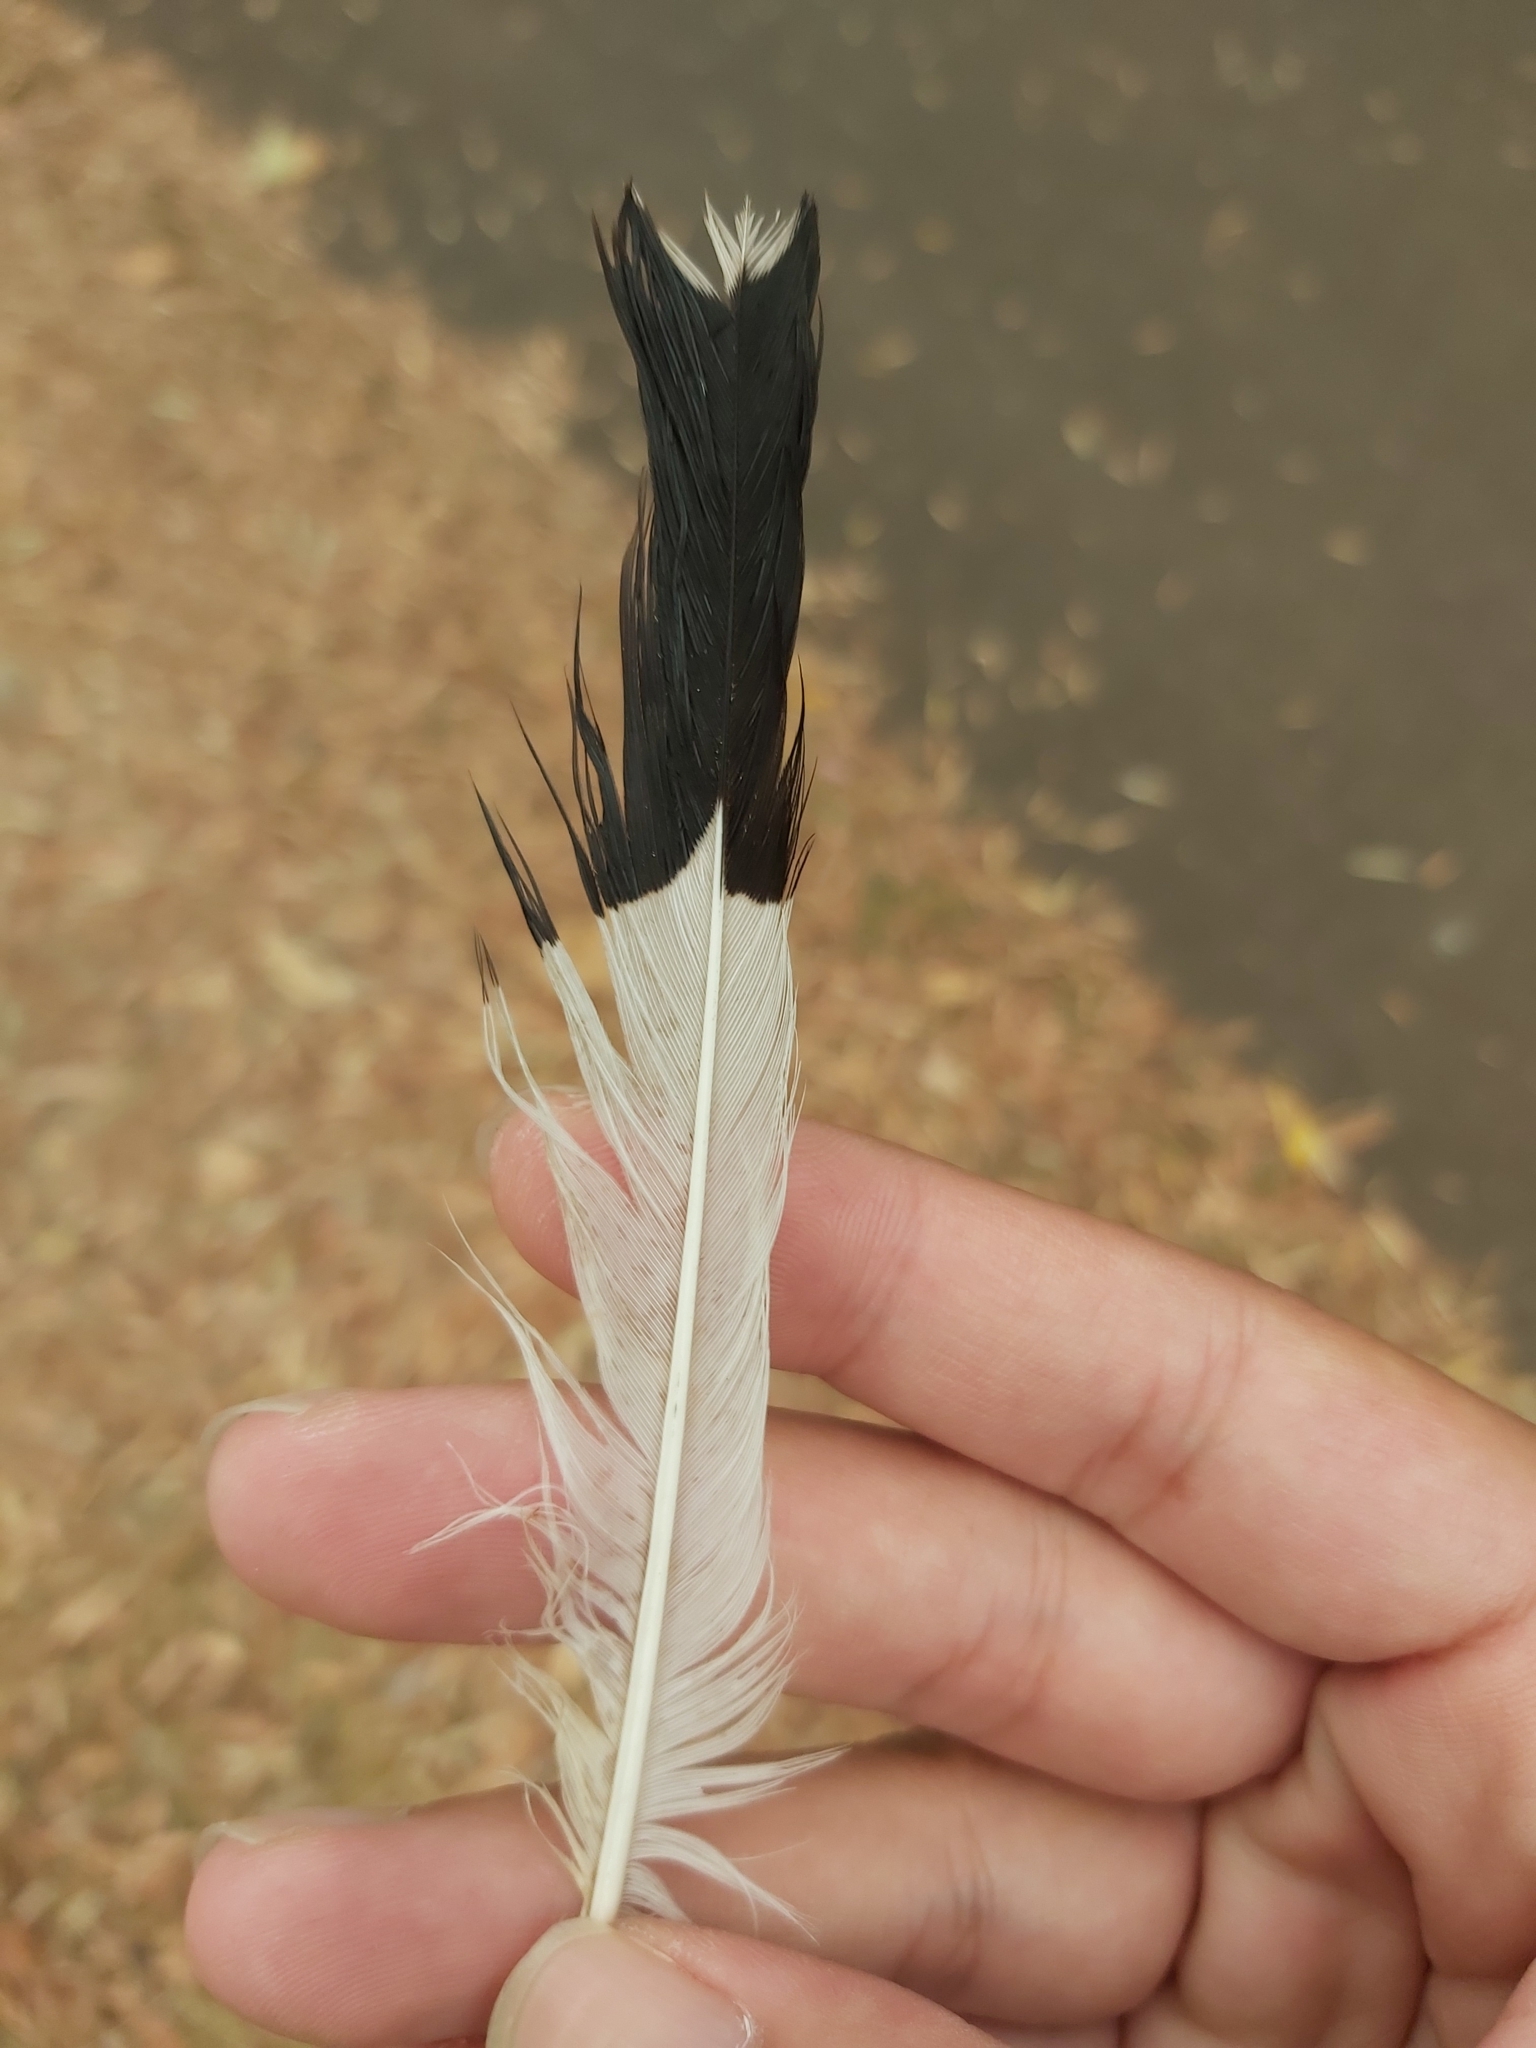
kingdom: Animalia
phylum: Chordata
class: Aves
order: Passeriformes
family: Monarchidae
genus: Grallina
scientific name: Grallina cyanoleuca
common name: Magpie-lark
